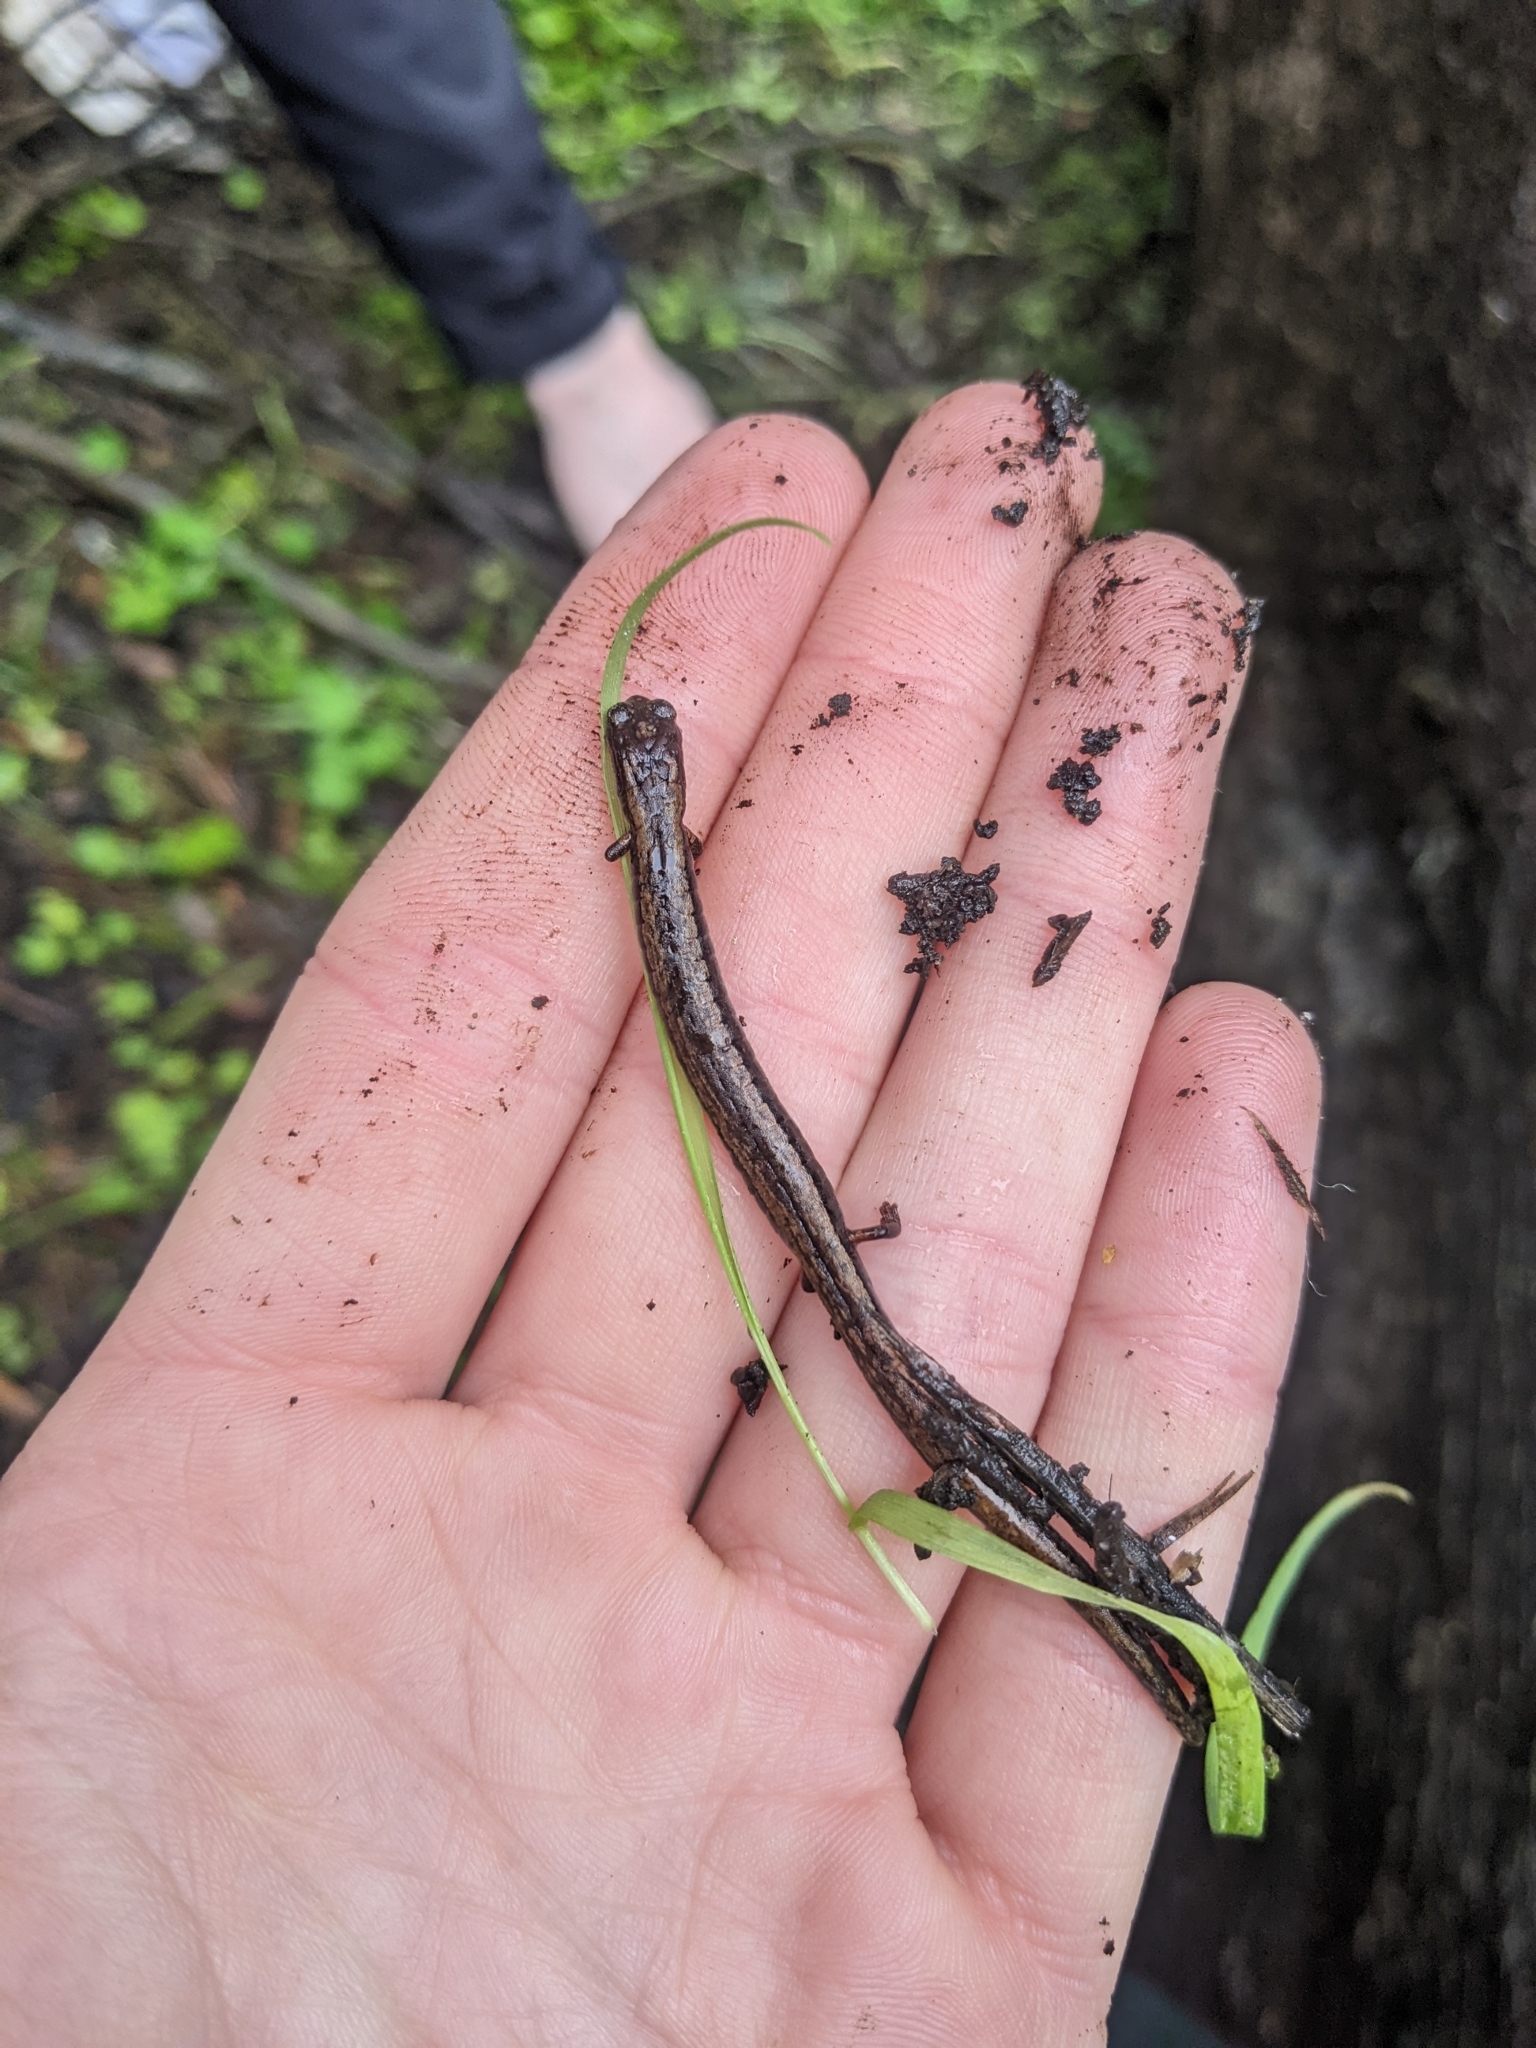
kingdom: Animalia
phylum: Chordata
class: Amphibia
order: Caudata
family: Plethodontidae
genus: Batrachoseps
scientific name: Batrachoseps attenuatus
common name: California slender salamander
